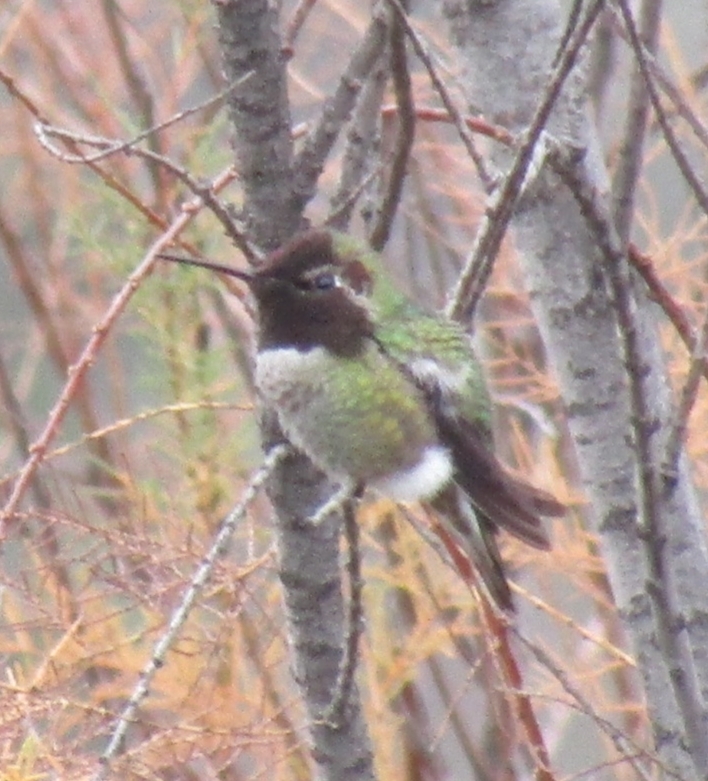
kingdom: Animalia
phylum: Chordata
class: Aves
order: Apodiformes
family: Trochilidae
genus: Calypte
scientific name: Calypte anna
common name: Anna's hummingbird
